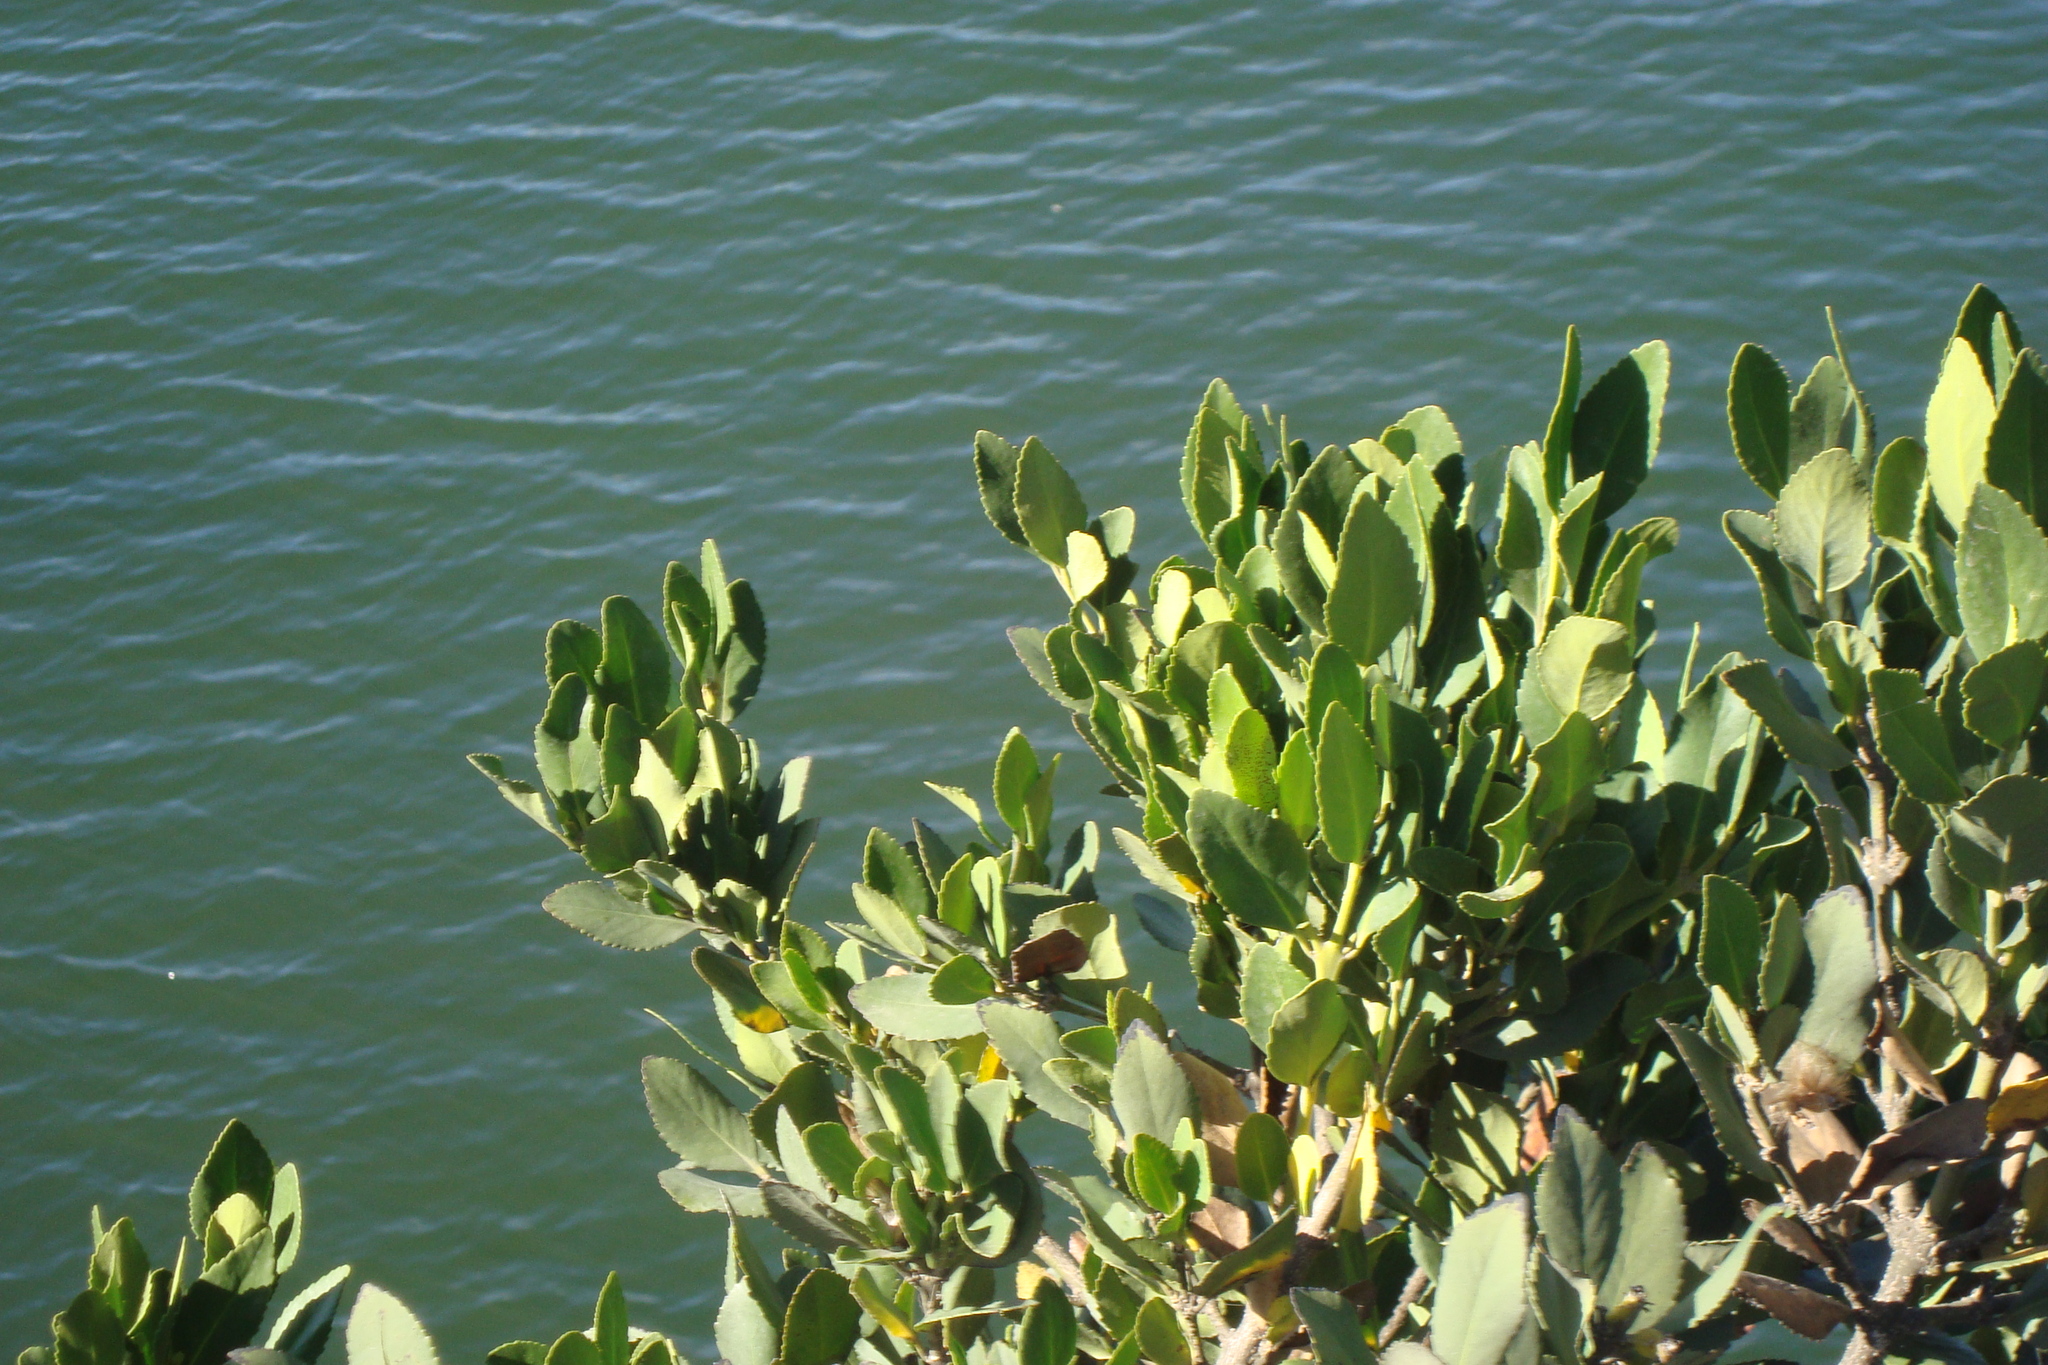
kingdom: Plantae
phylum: Tracheophyta
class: Magnoliopsida
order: Laurales
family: Atherospermataceae
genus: Laurelia
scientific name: Laurelia sempervirens
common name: Chilean laurel
